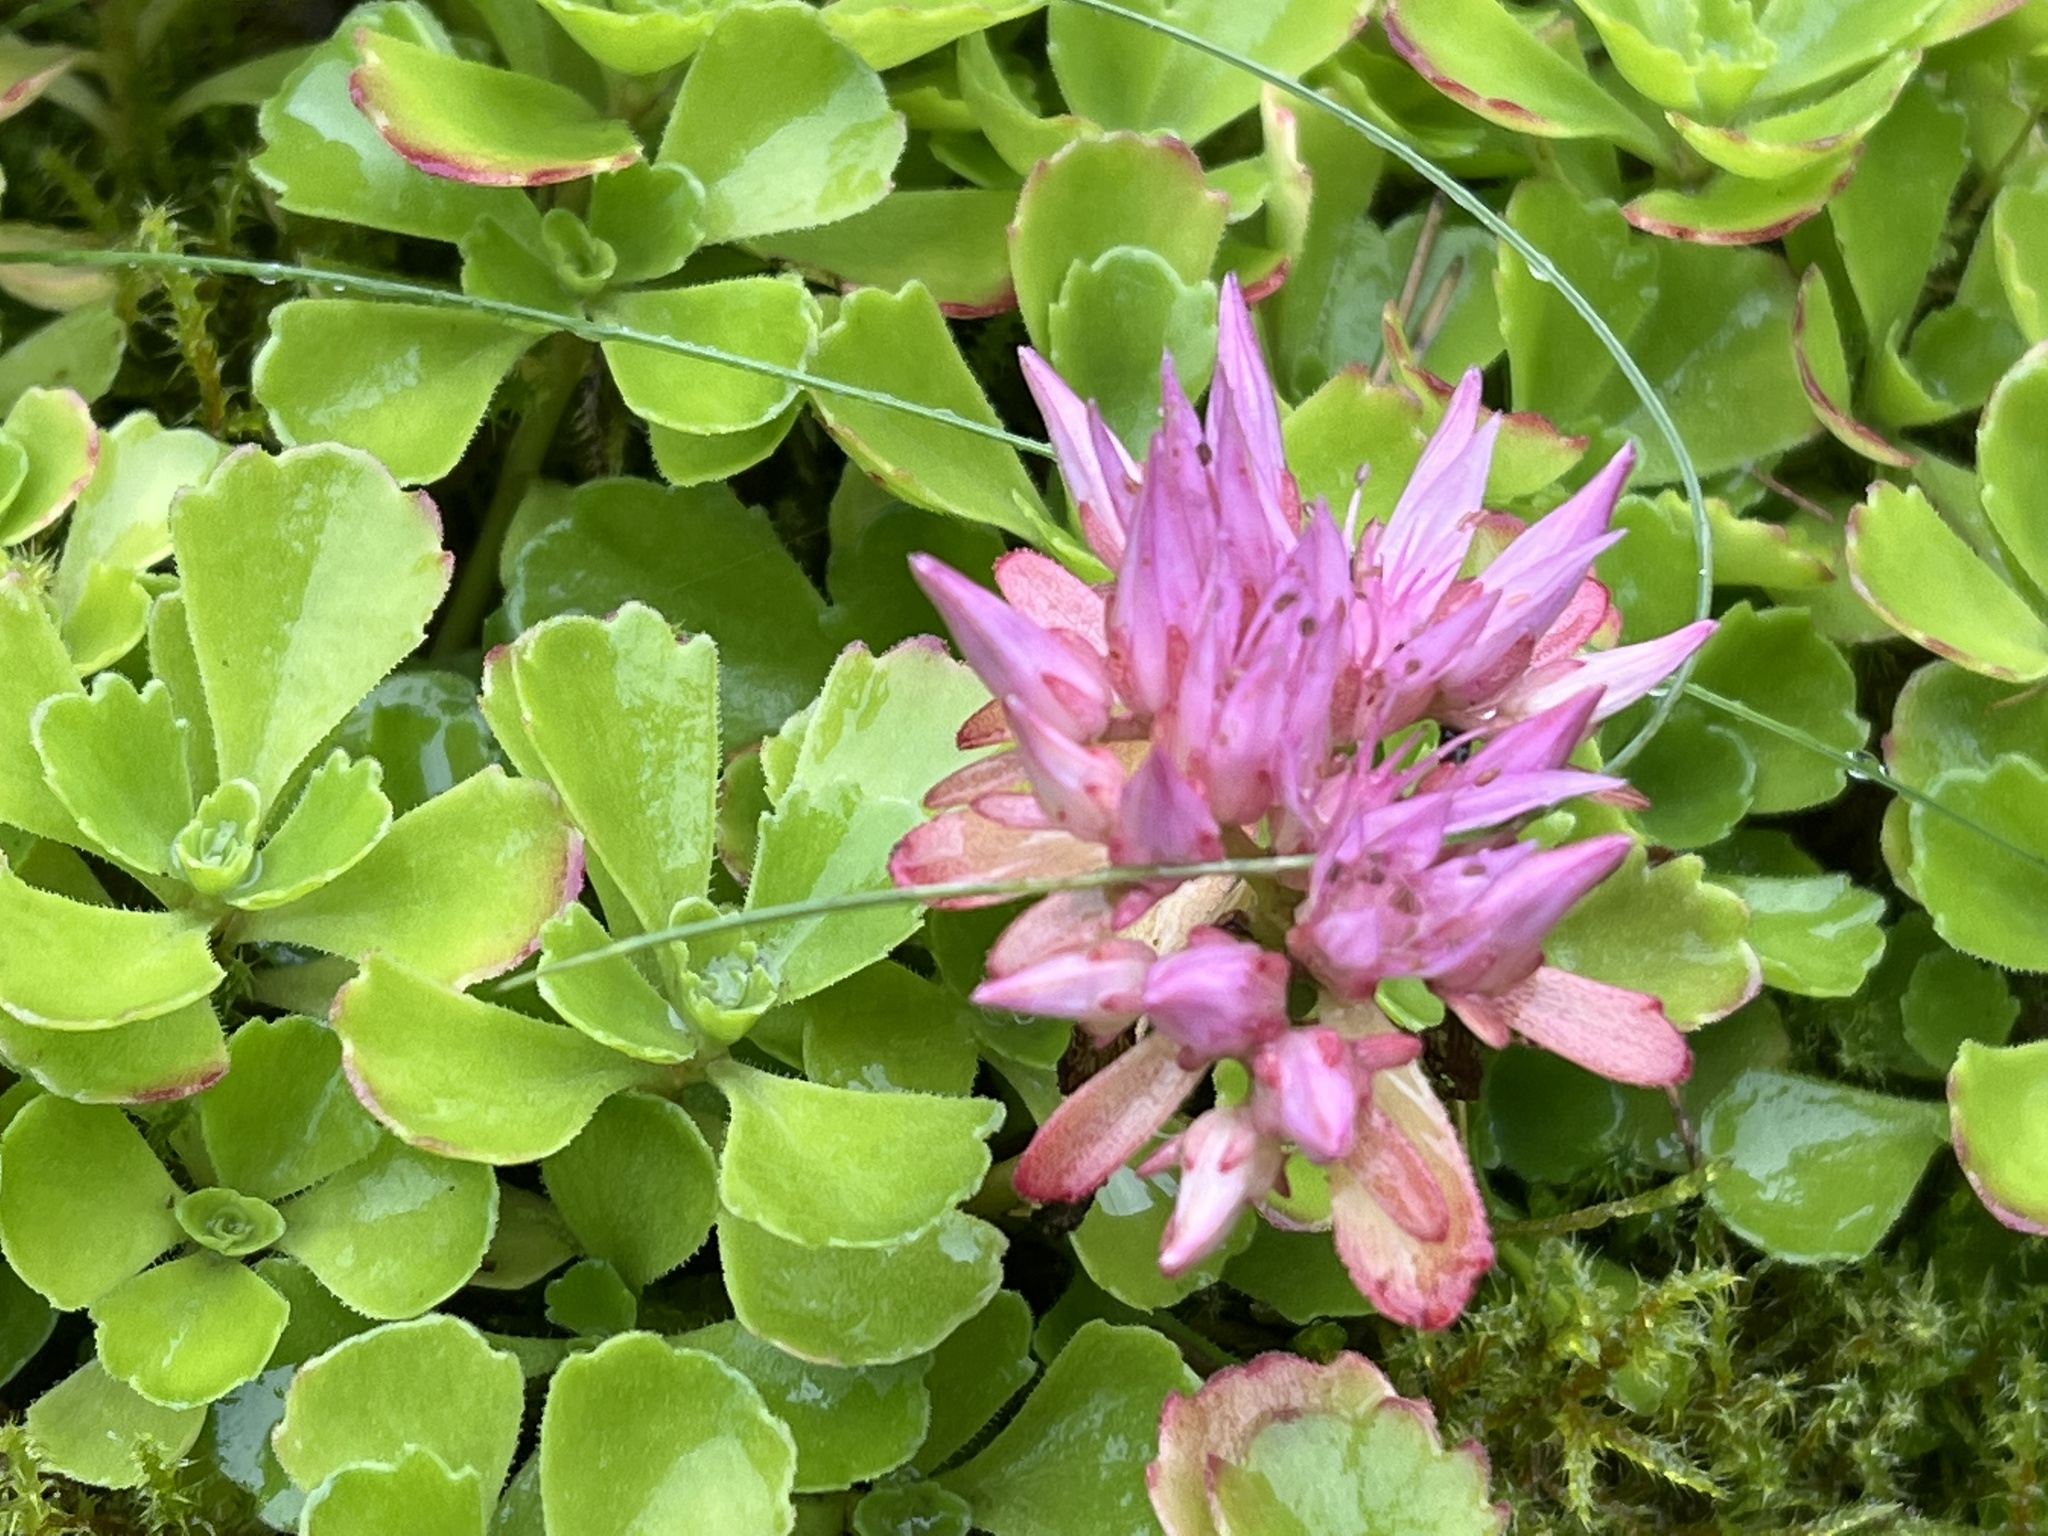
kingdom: Plantae
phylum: Tracheophyta
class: Magnoliopsida
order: Saxifragales
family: Crassulaceae
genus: Phedimus
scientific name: Phedimus spurius
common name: Caucasian stonecrop
